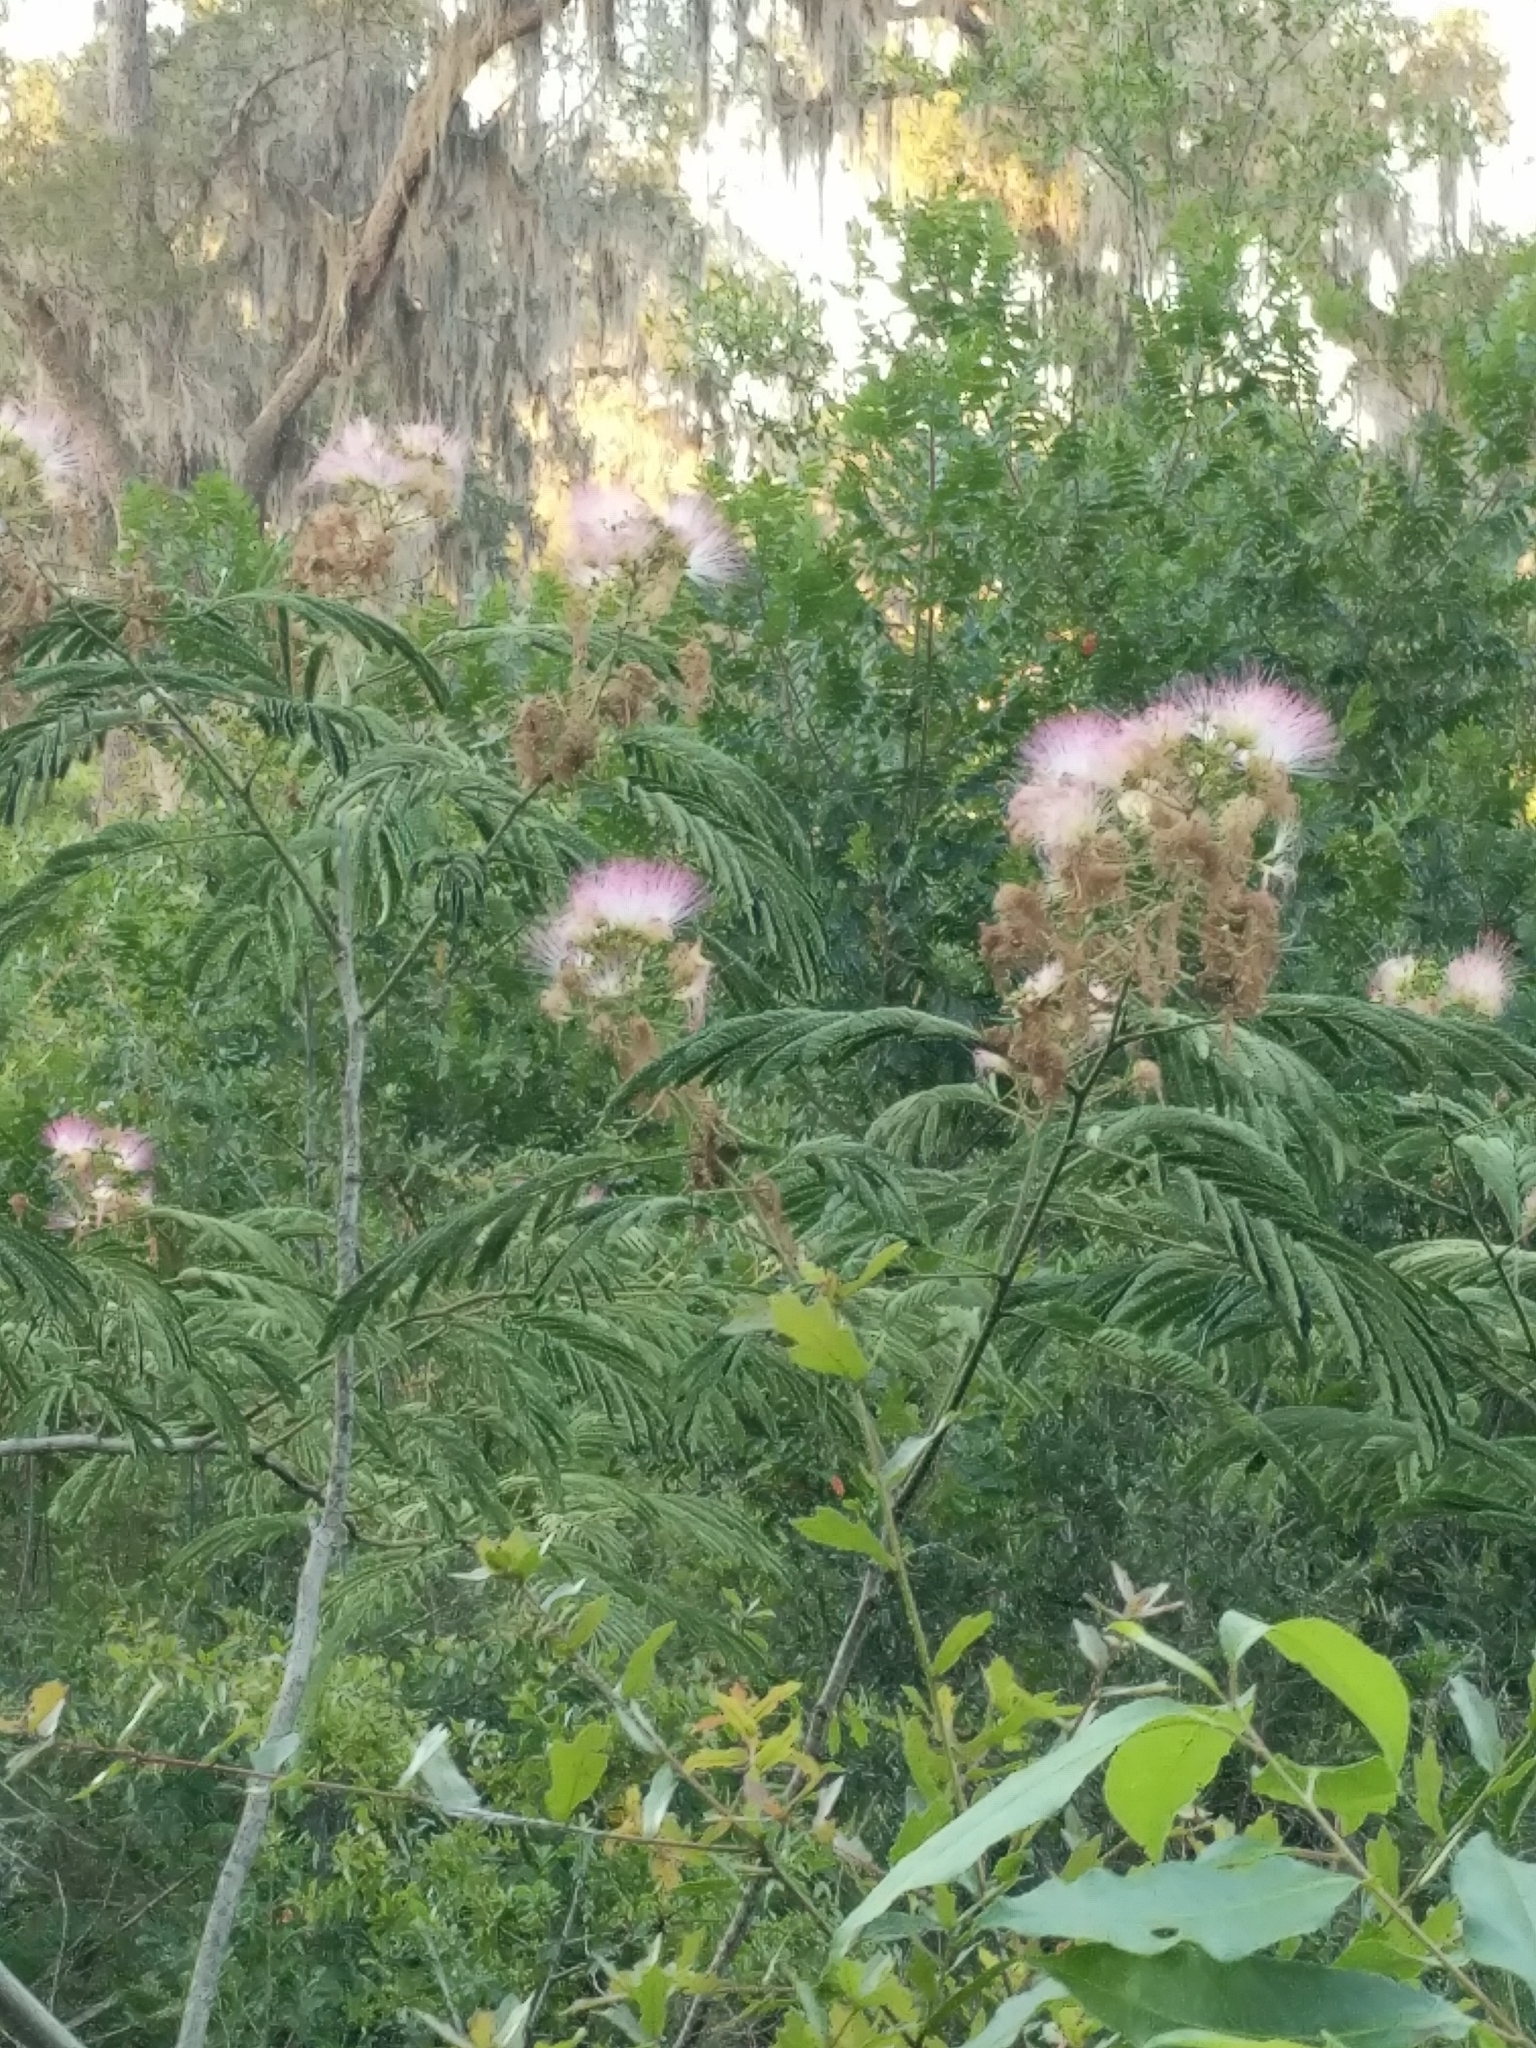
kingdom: Plantae
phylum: Tracheophyta
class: Magnoliopsida
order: Fabales
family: Fabaceae
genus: Albizia
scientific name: Albizia julibrissin
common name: Silktree
